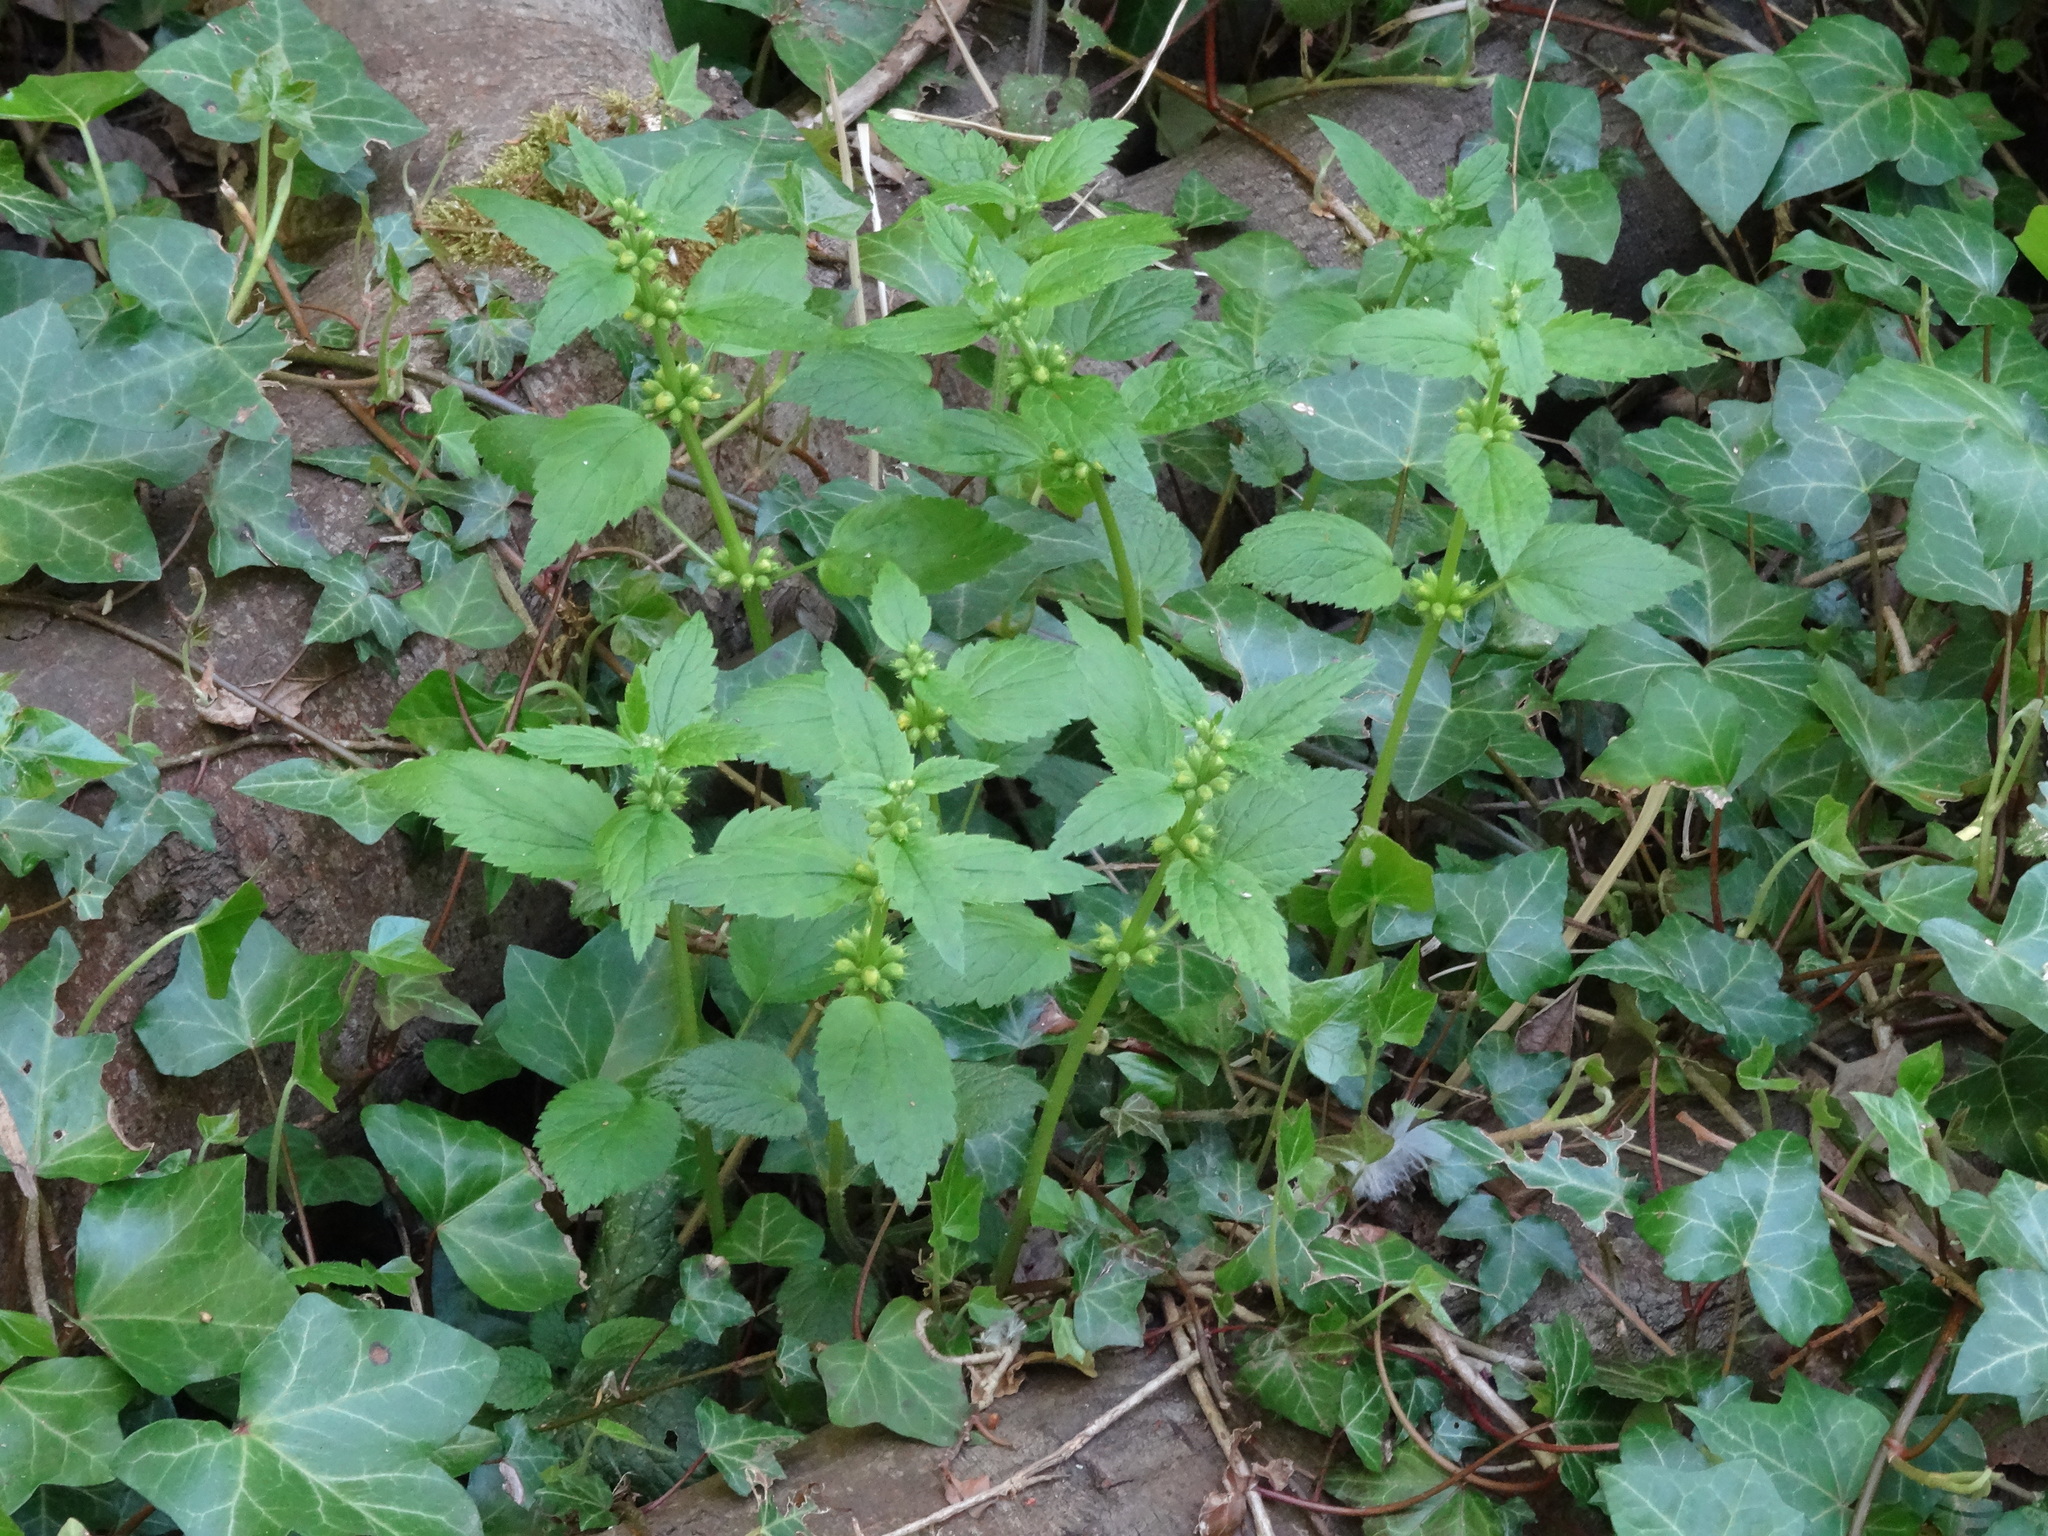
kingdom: Plantae
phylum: Tracheophyta
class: Magnoliopsida
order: Lamiales
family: Lamiaceae
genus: Lamium
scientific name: Lamium galeobdolon
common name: Yellow archangel
